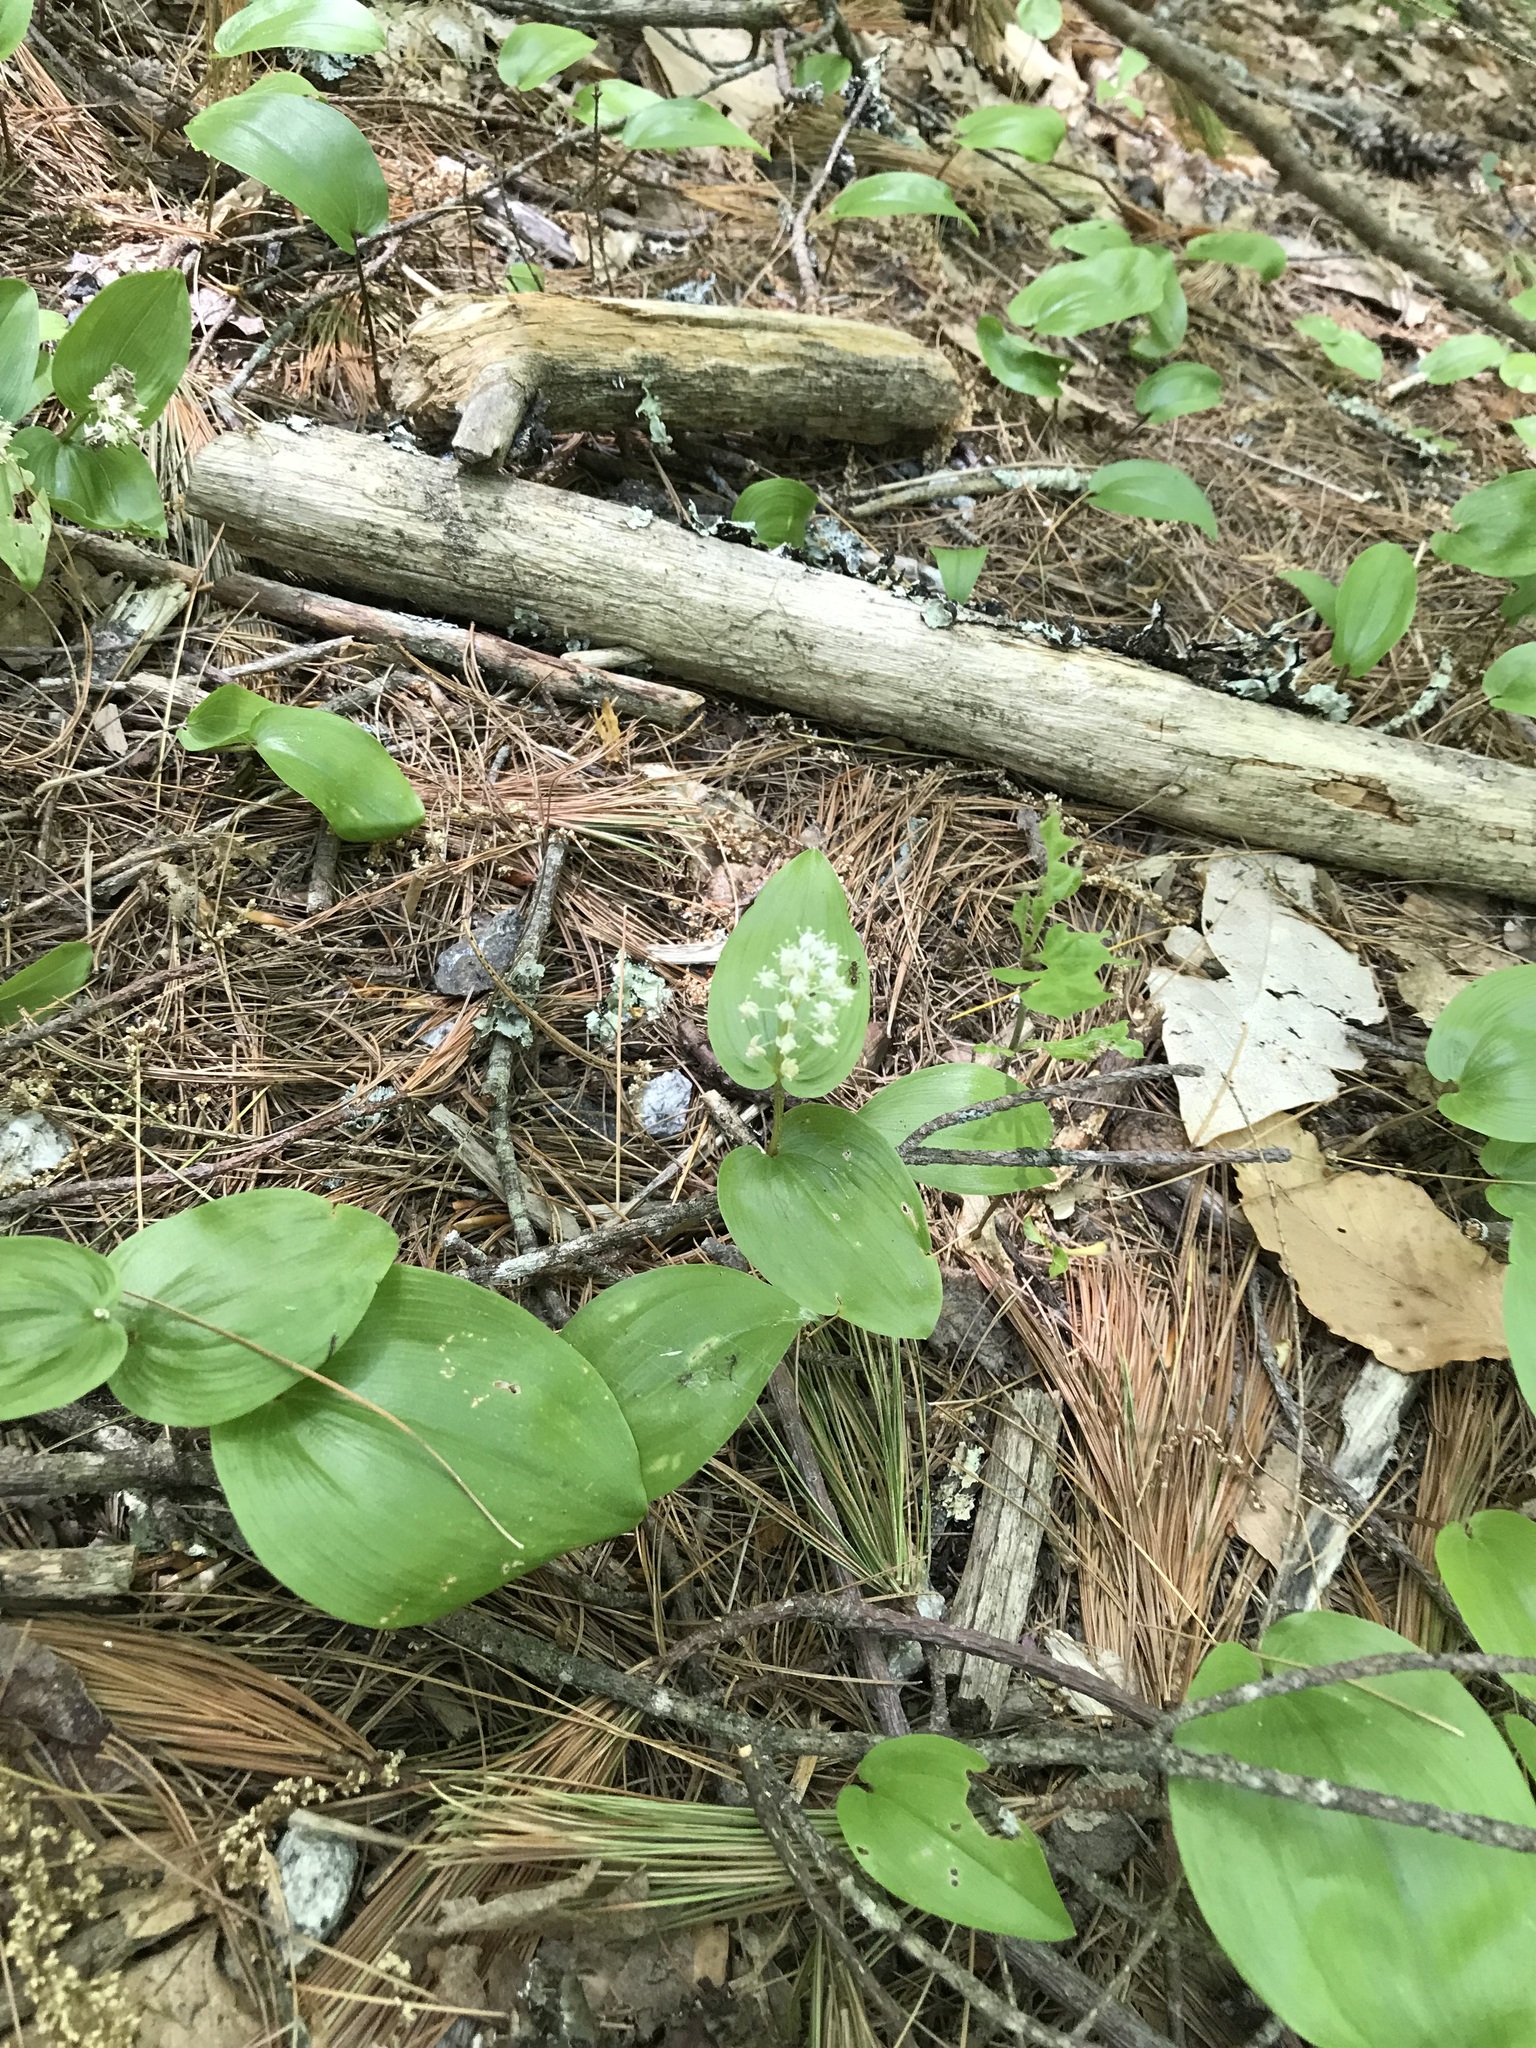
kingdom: Plantae
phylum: Tracheophyta
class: Liliopsida
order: Asparagales
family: Asparagaceae
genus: Maianthemum
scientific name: Maianthemum canadense
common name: False lily-of-the-valley
